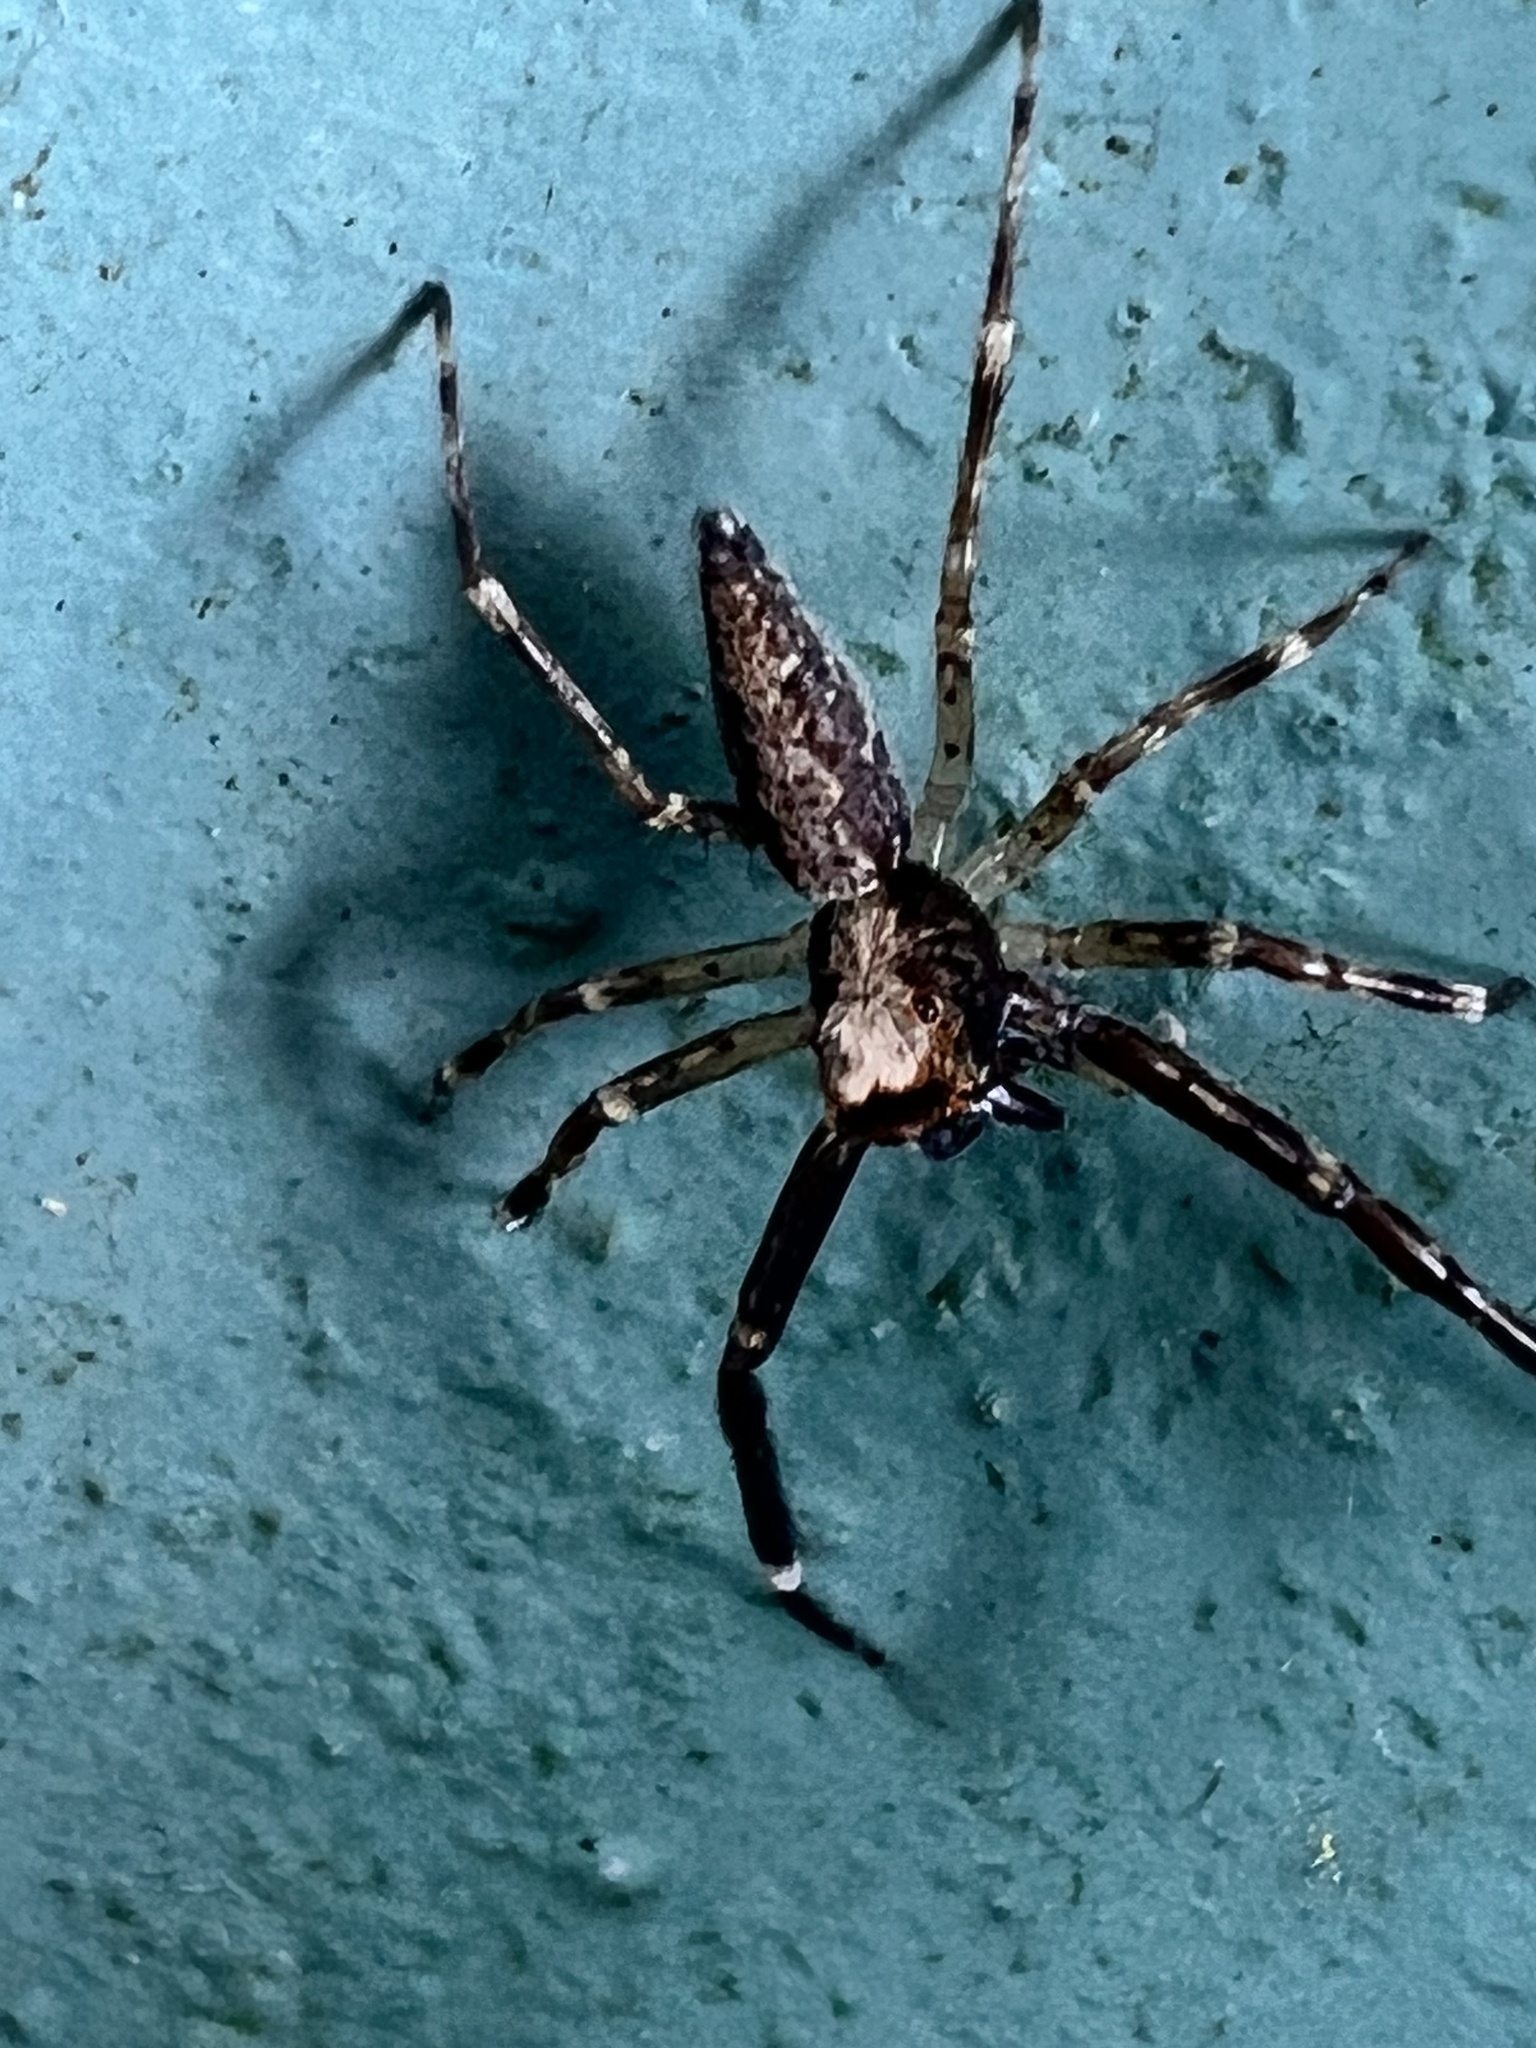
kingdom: Animalia
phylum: Arthropoda
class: Arachnida
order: Araneae
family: Salticidae
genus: Helpis
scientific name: Helpis minitabunda
